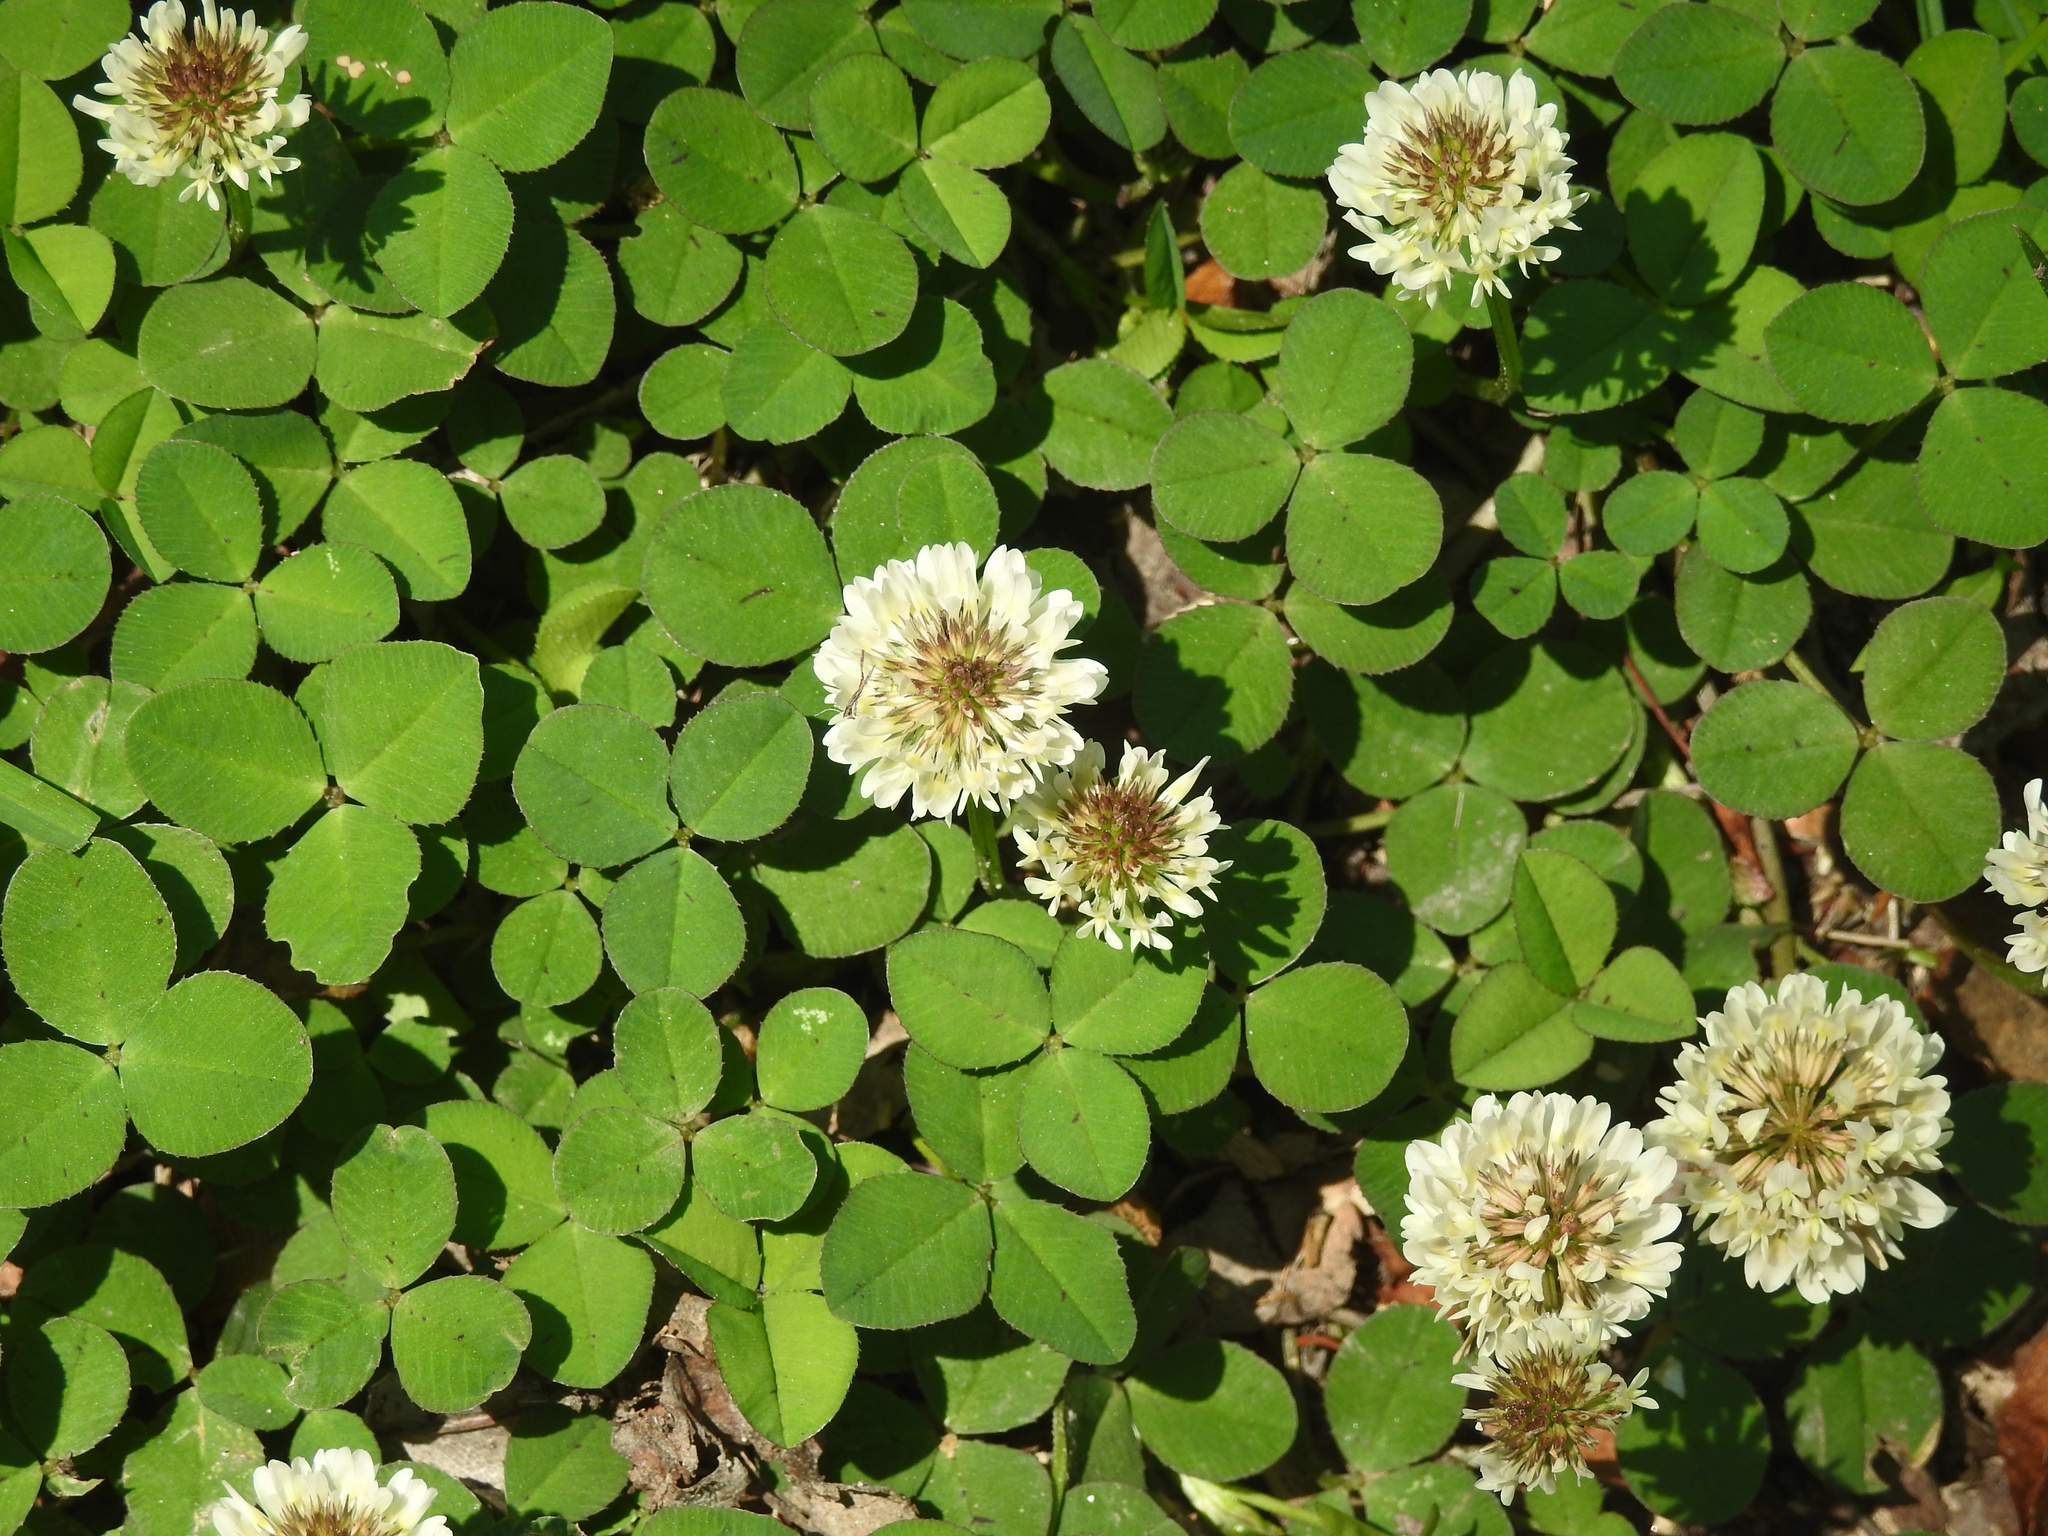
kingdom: Plantae
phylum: Tracheophyta
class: Magnoliopsida
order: Fabales
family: Fabaceae
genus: Trifolium
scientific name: Trifolium repens
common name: White clover
